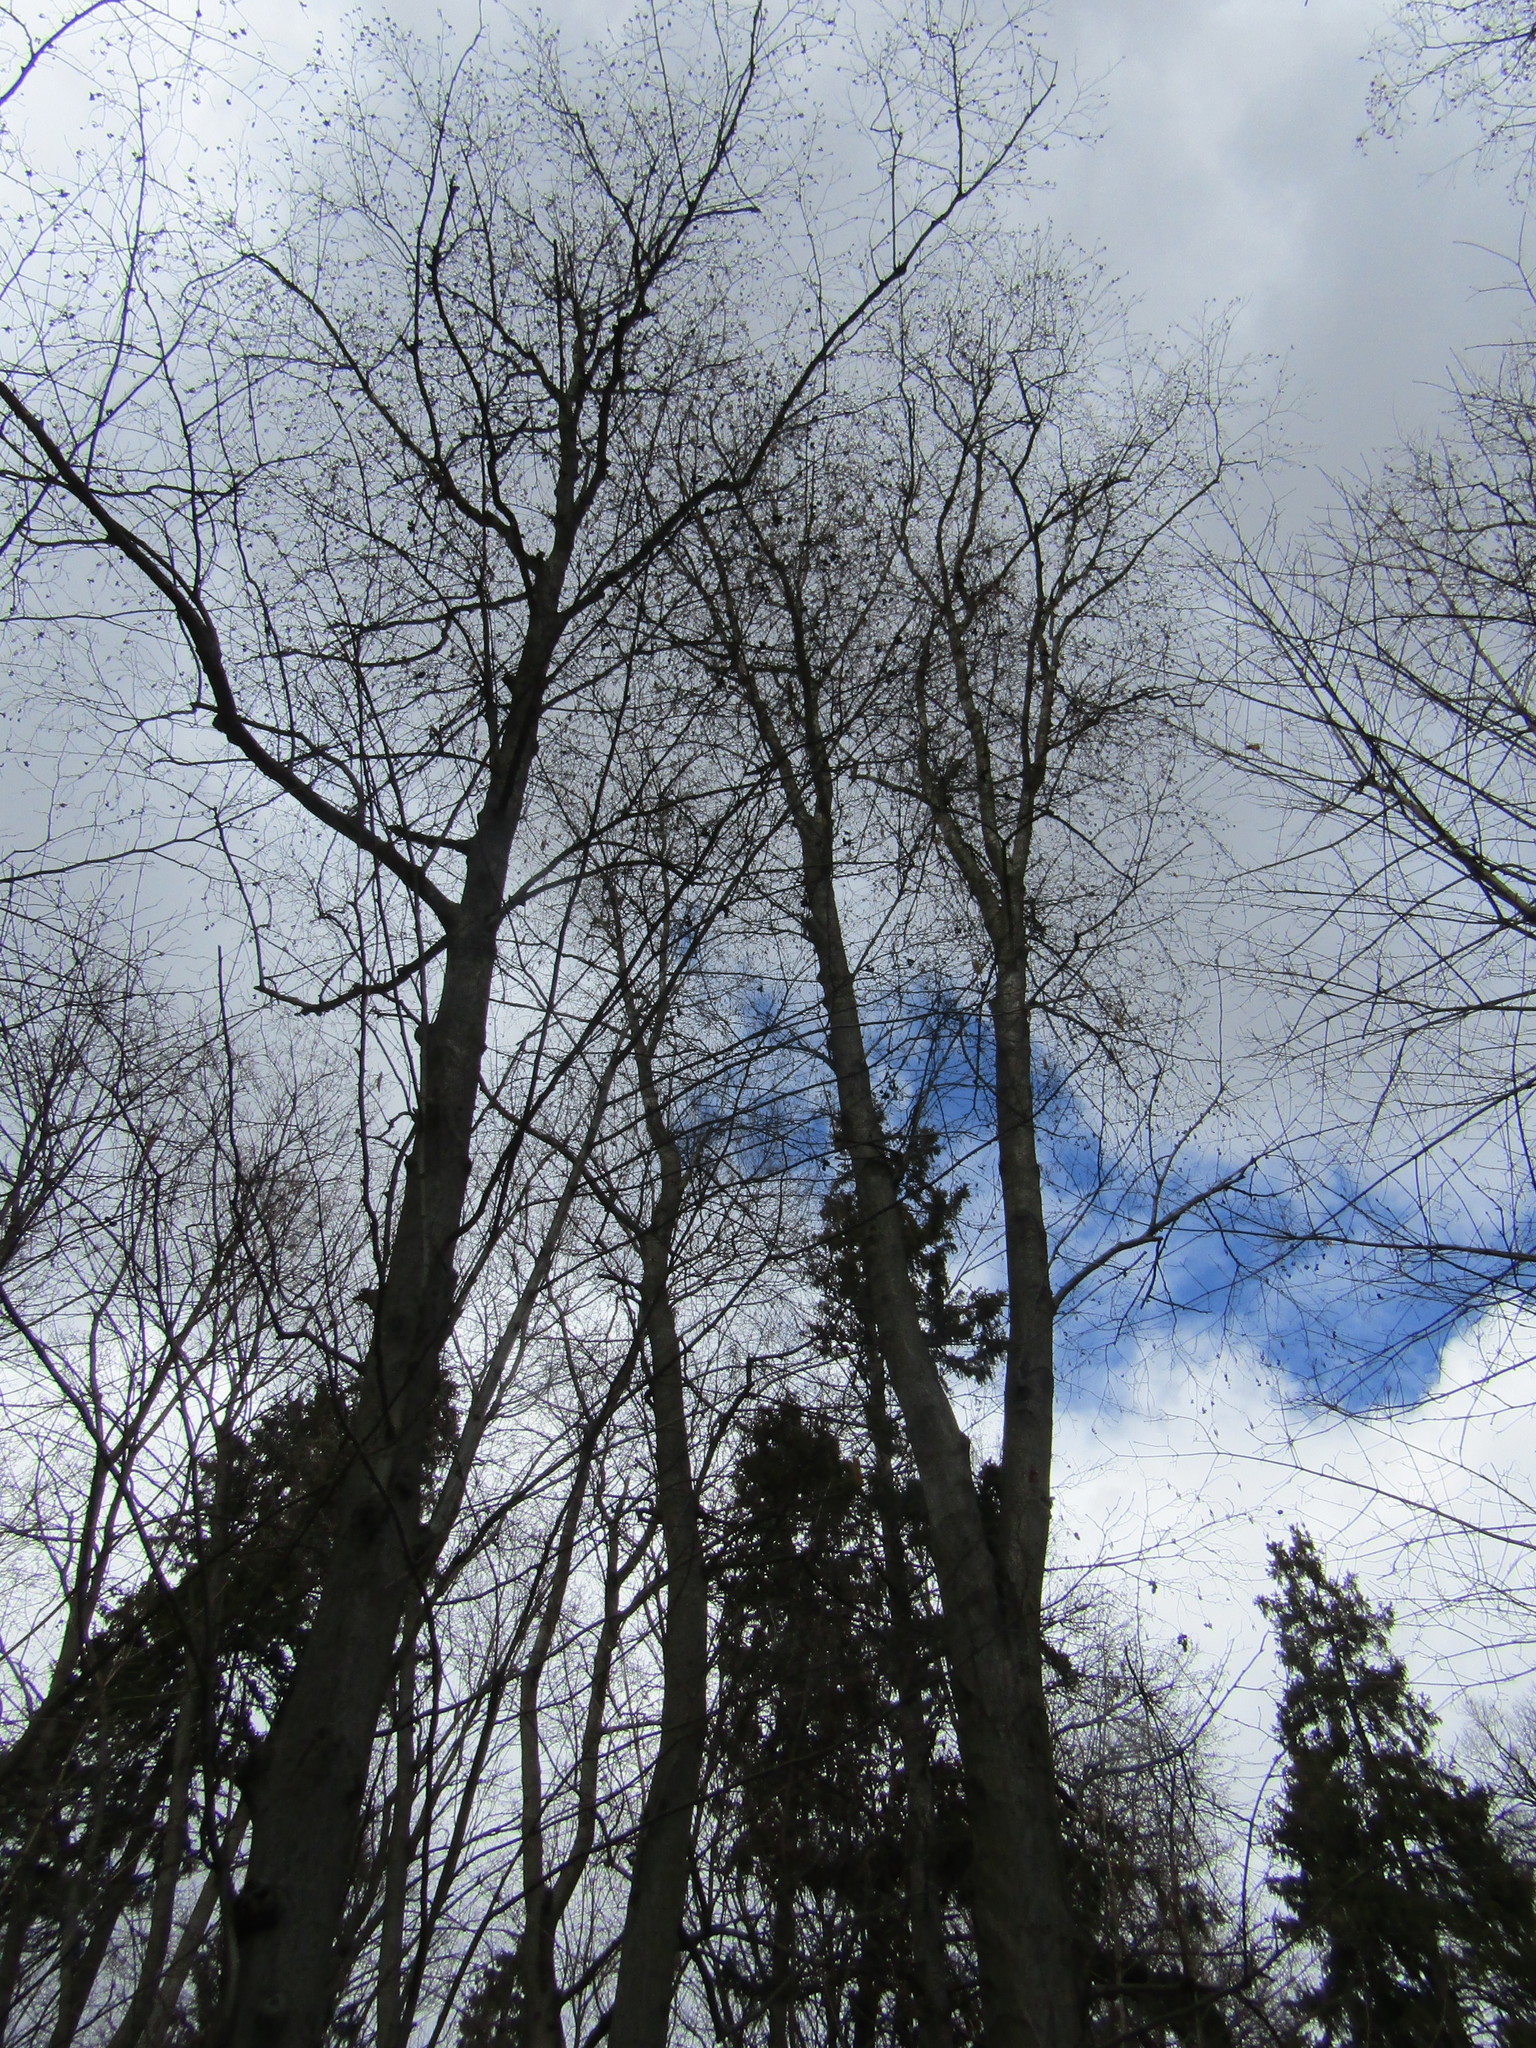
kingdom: Plantae
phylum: Tracheophyta
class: Magnoliopsida
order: Fagales
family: Betulaceae
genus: Alnus
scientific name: Alnus incana
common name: Grey alder
